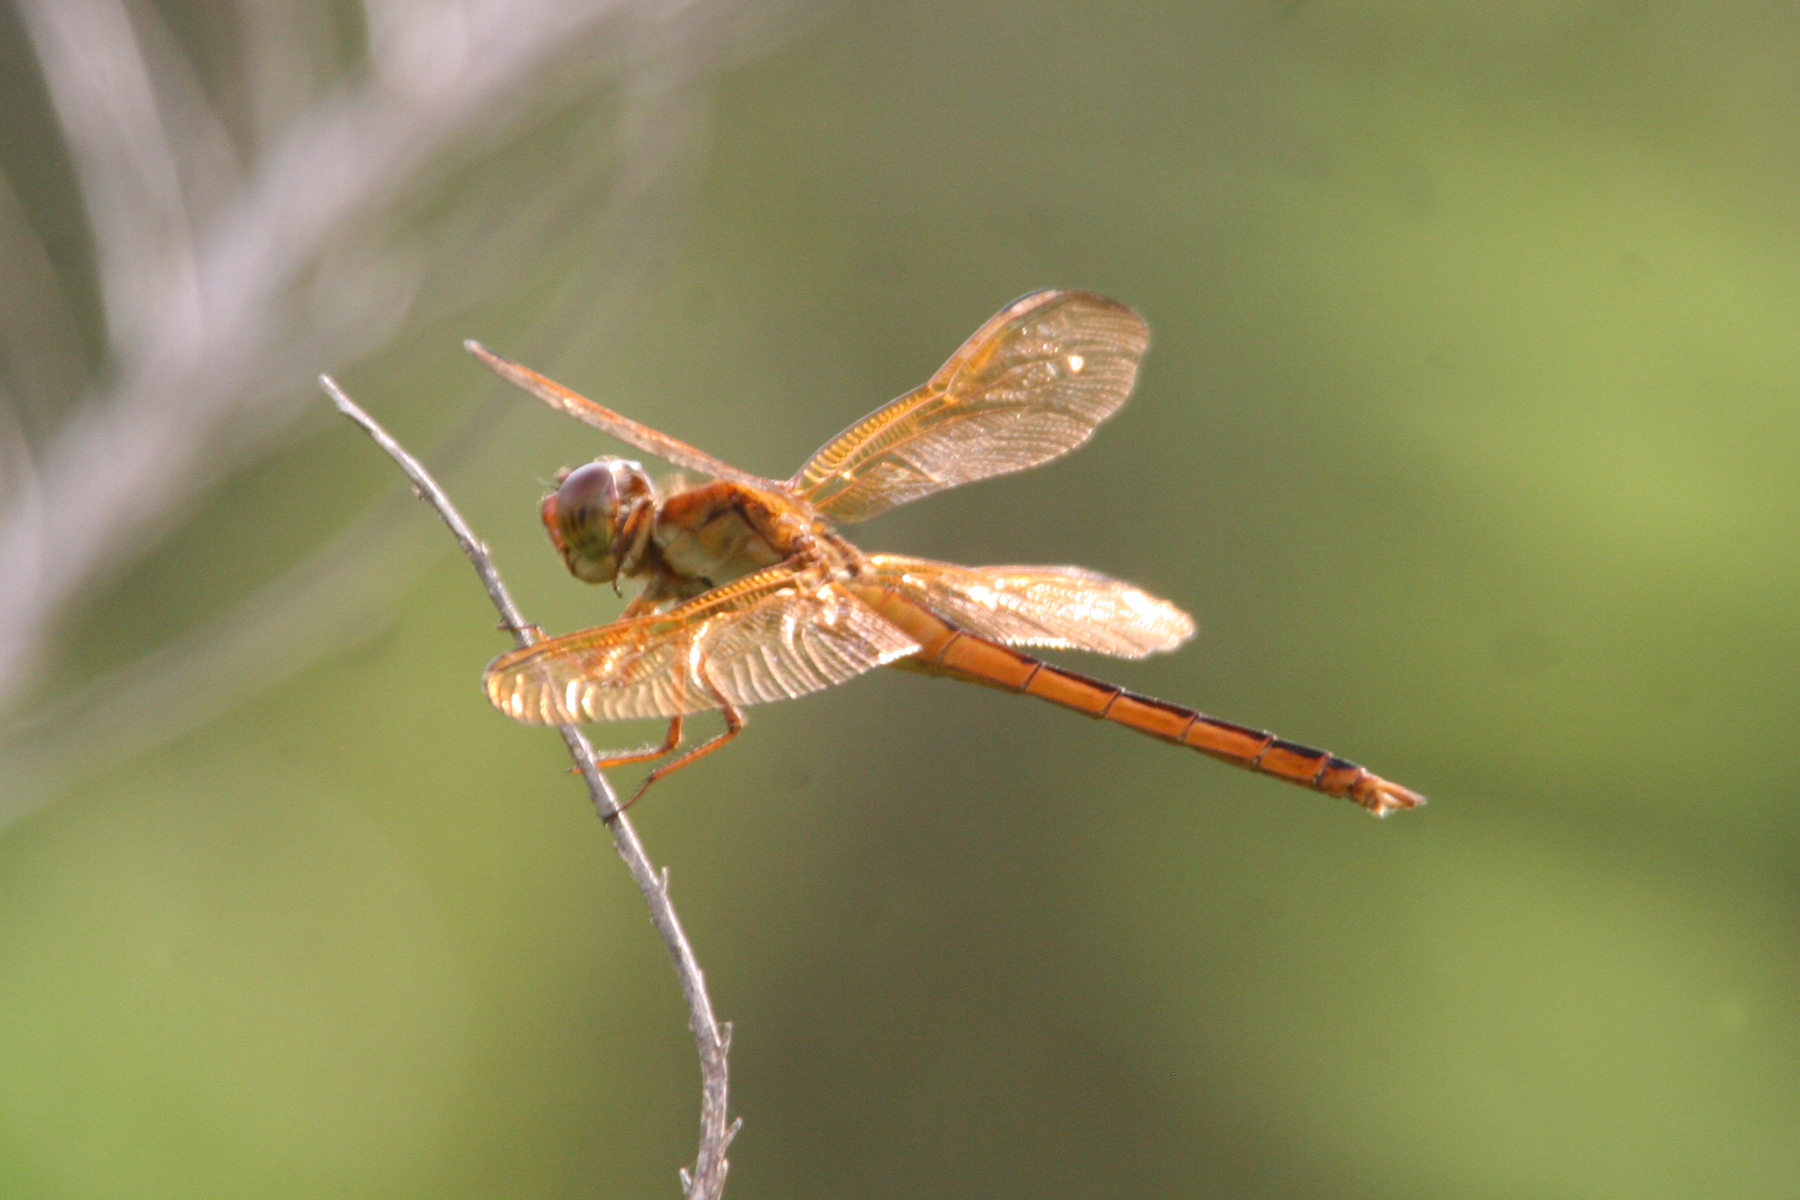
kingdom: Animalia
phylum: Arthropoda
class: Insecta
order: Odonata
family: Libellulidae
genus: Libellula
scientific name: Libellula needhami
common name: Needham's skimmer
